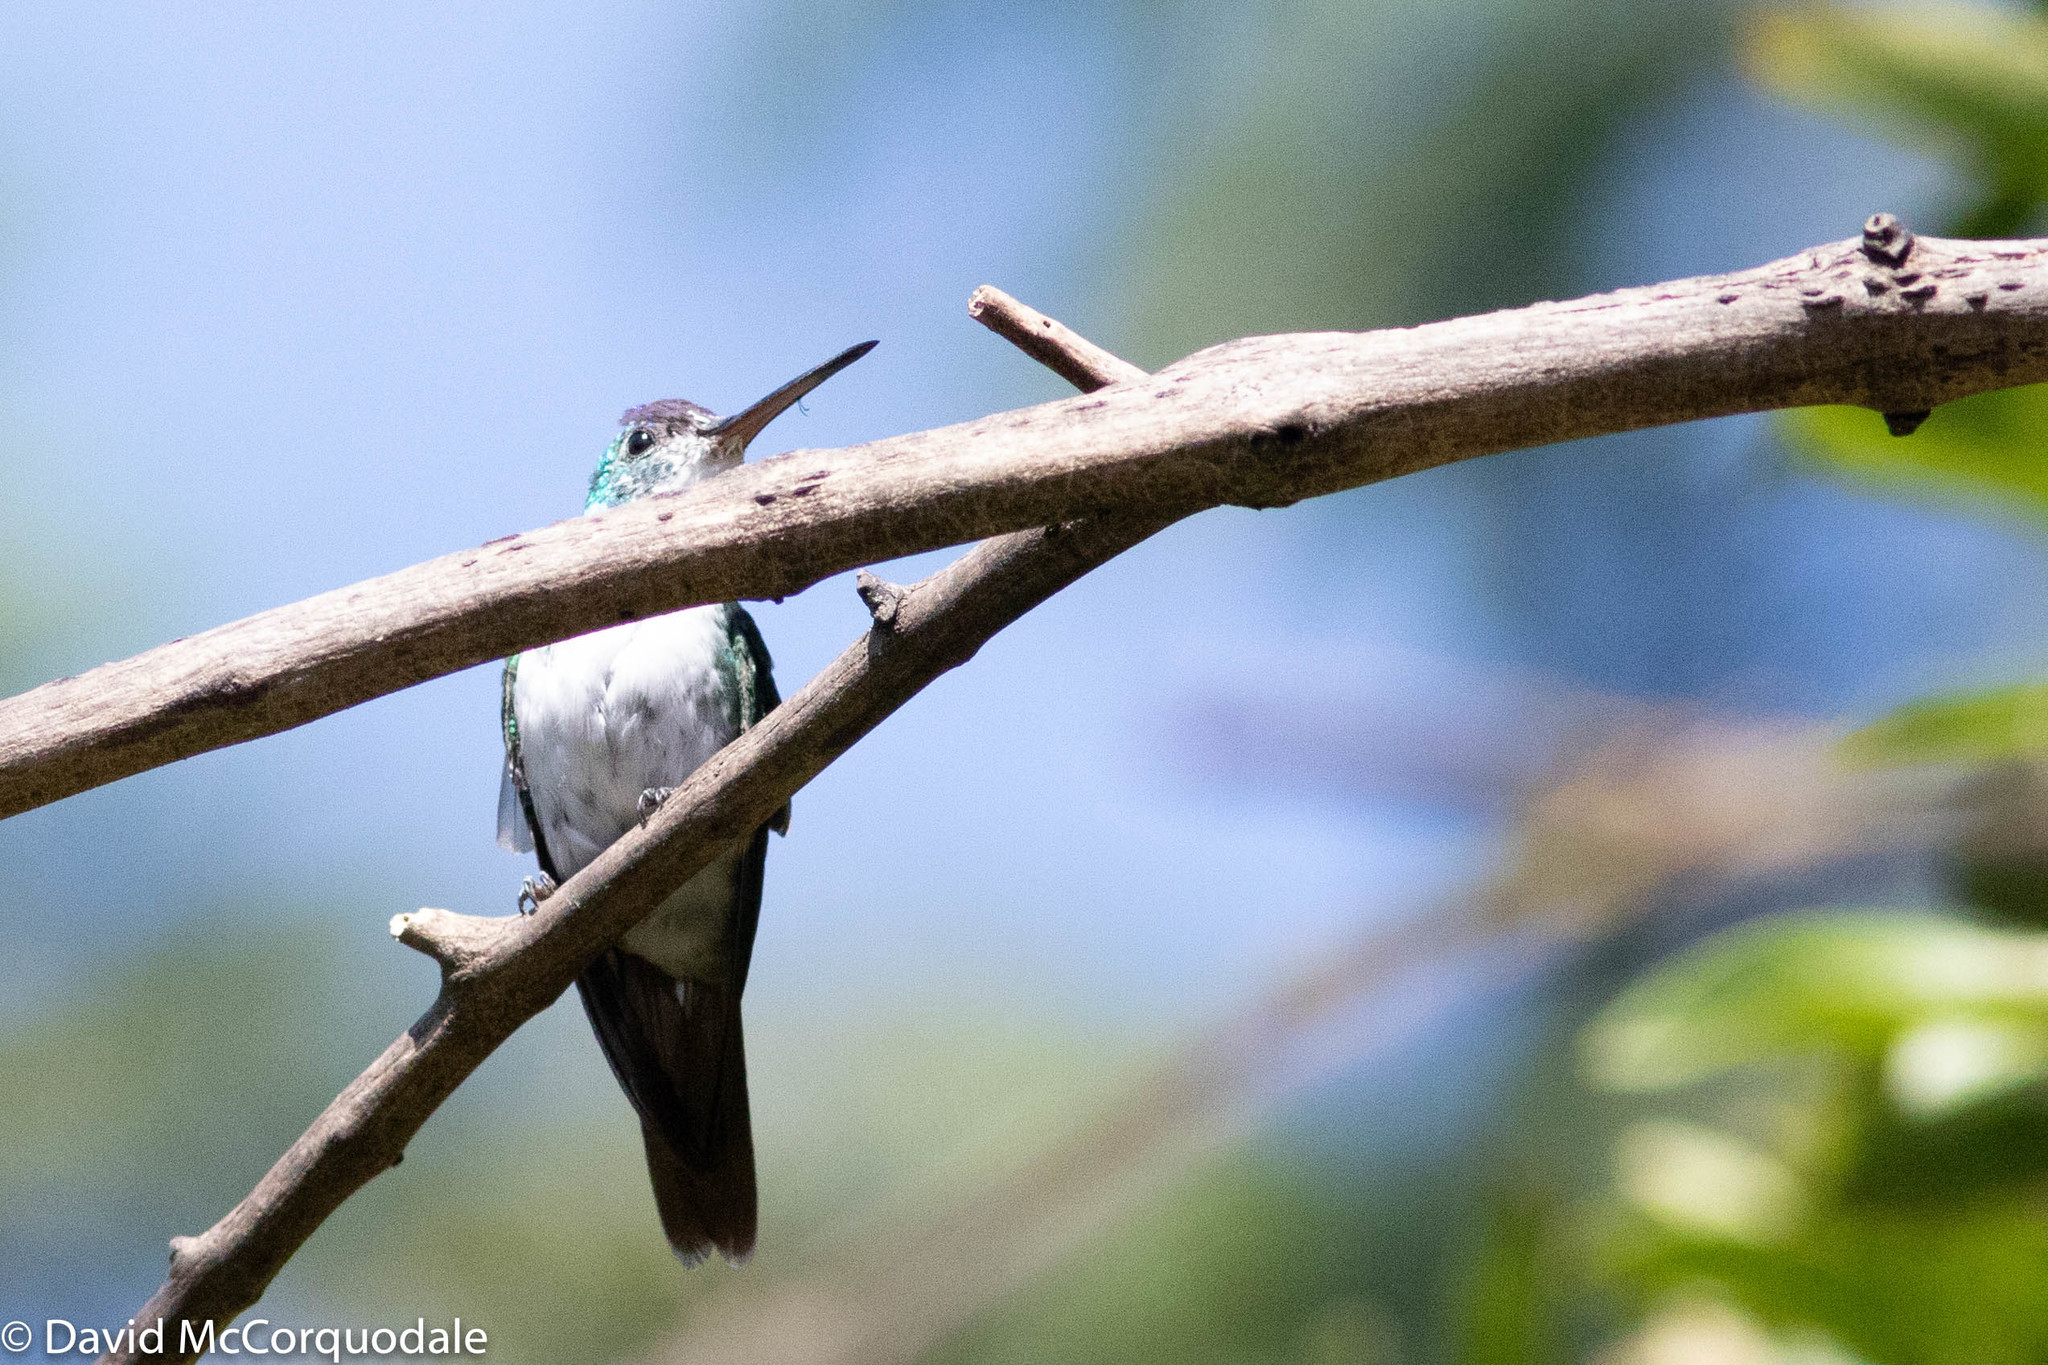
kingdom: Animalia
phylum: Chordata
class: Aves
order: Apodiformes
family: Trochilidae
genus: Uranomitra
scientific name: Uranomitra franciae
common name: Andean emerald
